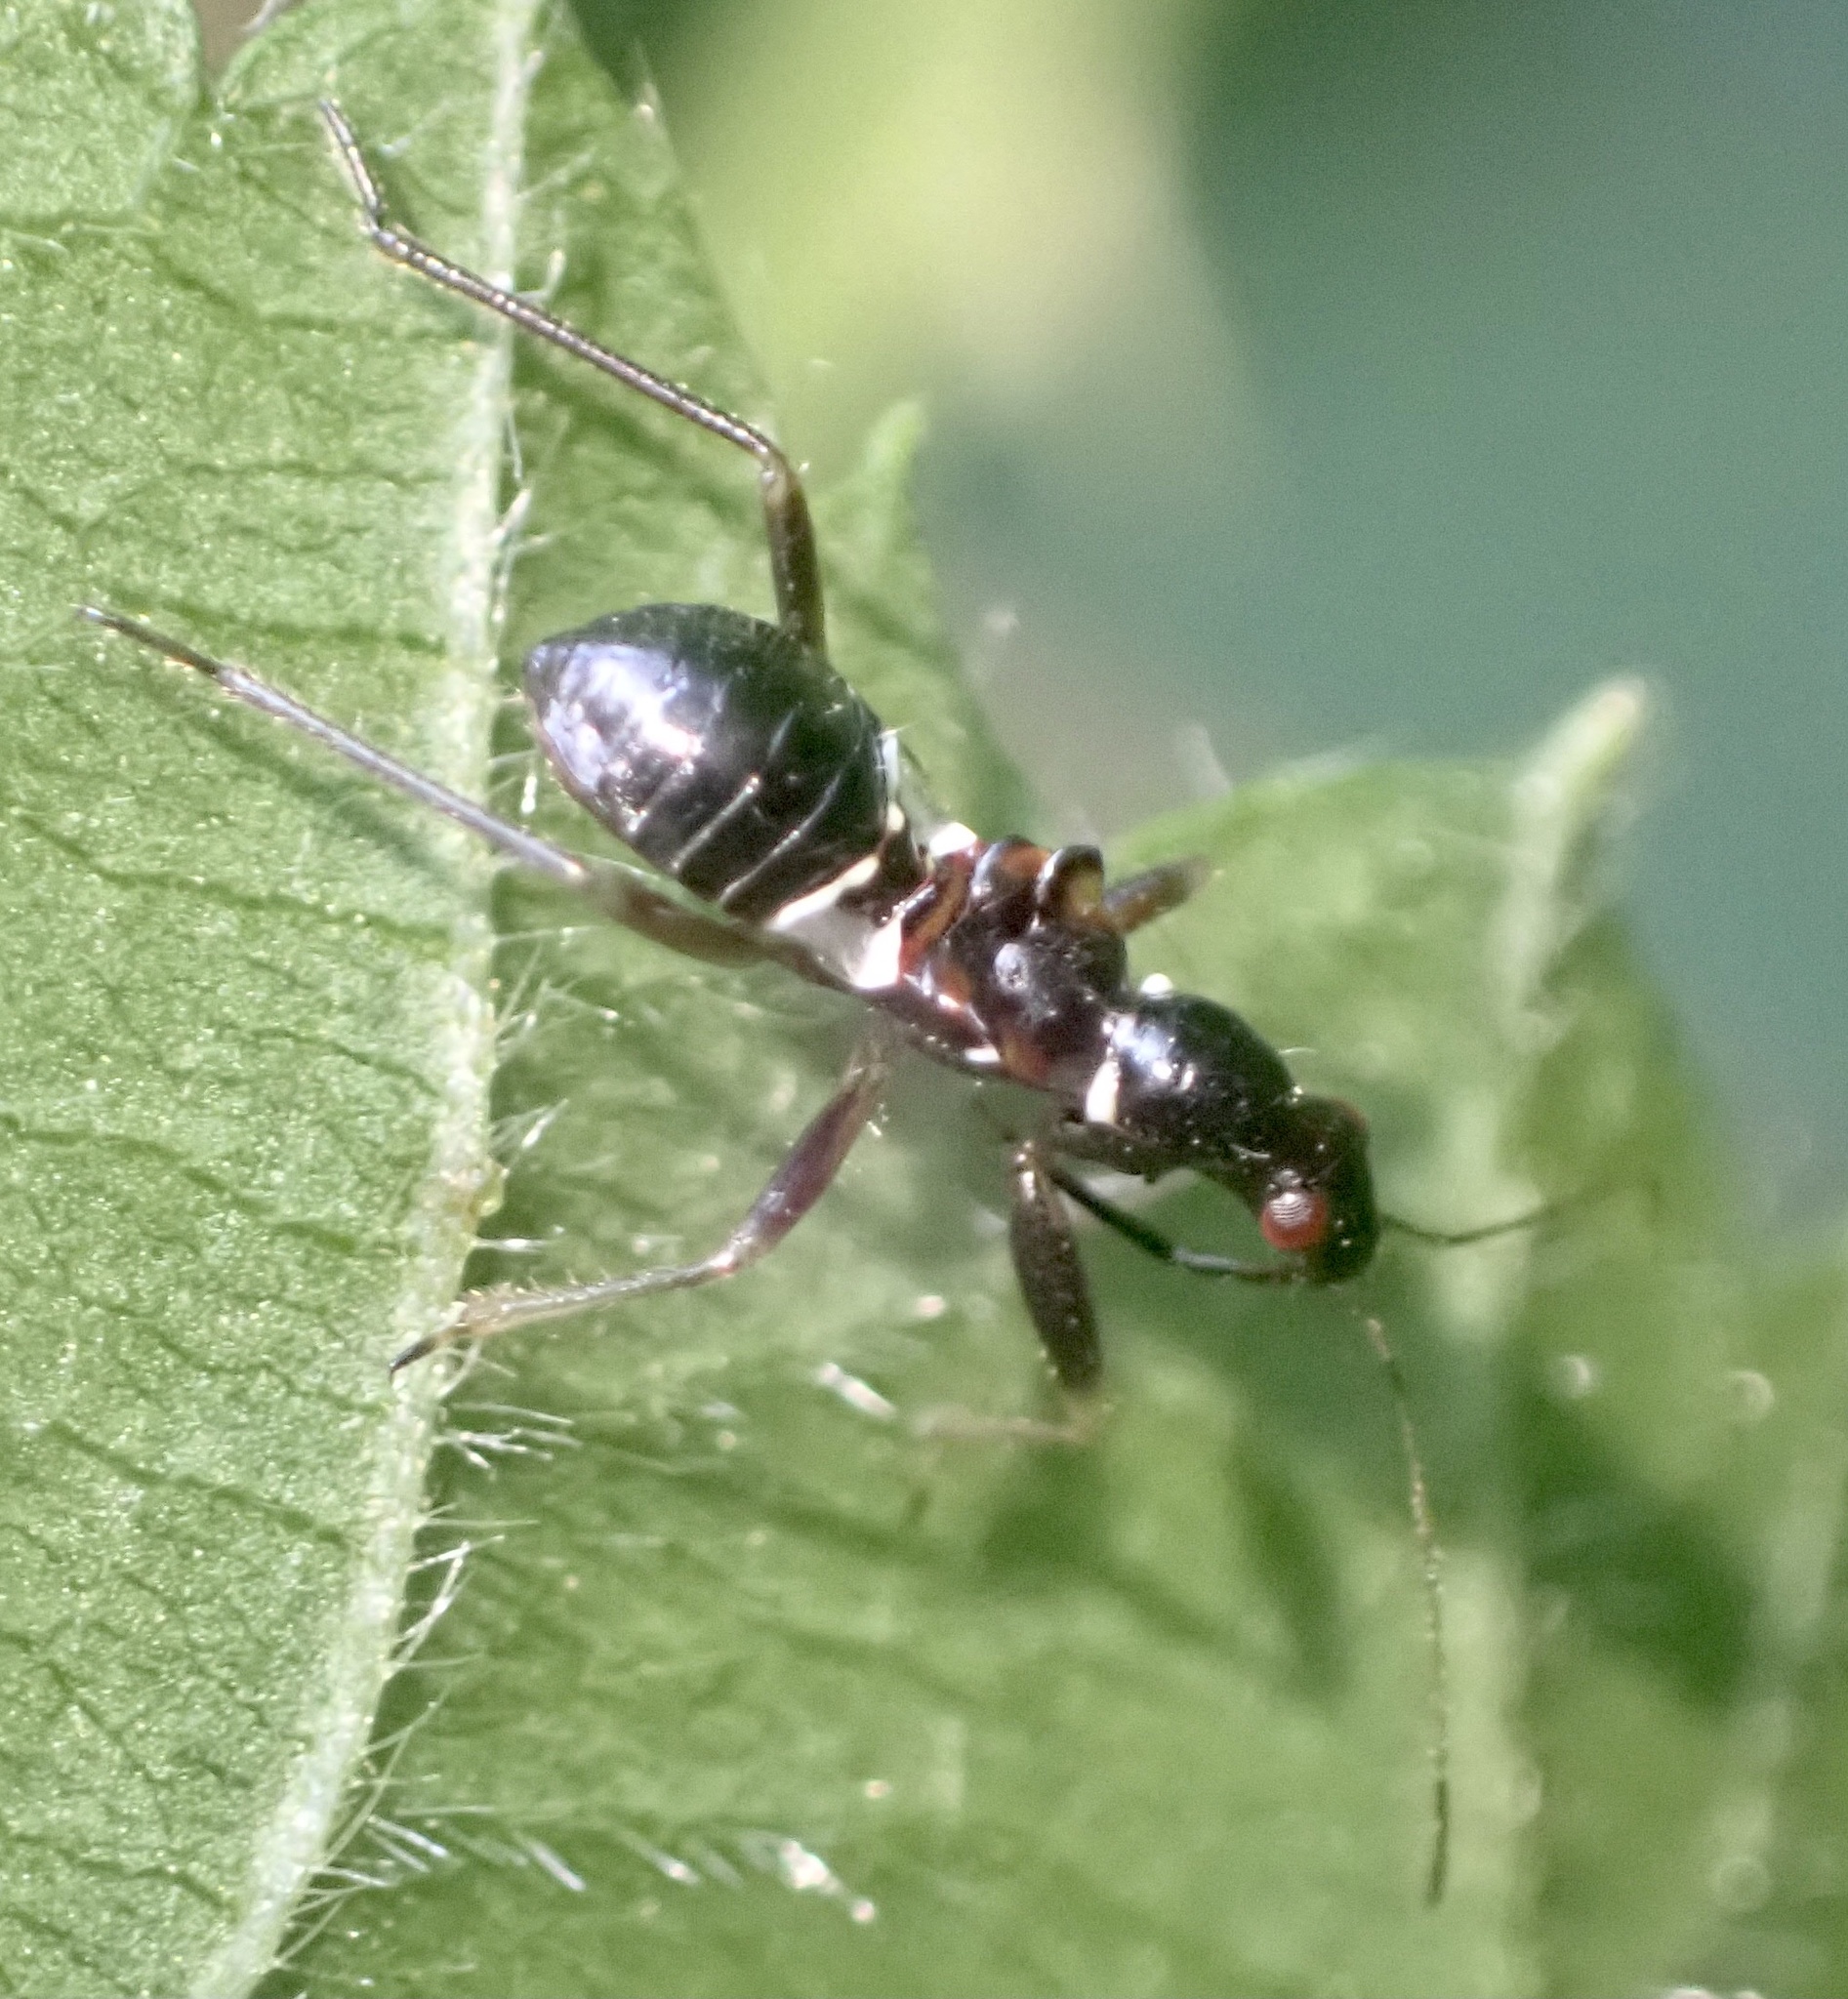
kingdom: Animalia
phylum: Arthropoda
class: Insecta
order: Hemiptera
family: Nabidae
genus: Himacerus
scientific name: Himacerus mirmicoides
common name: Ant damsel bug
